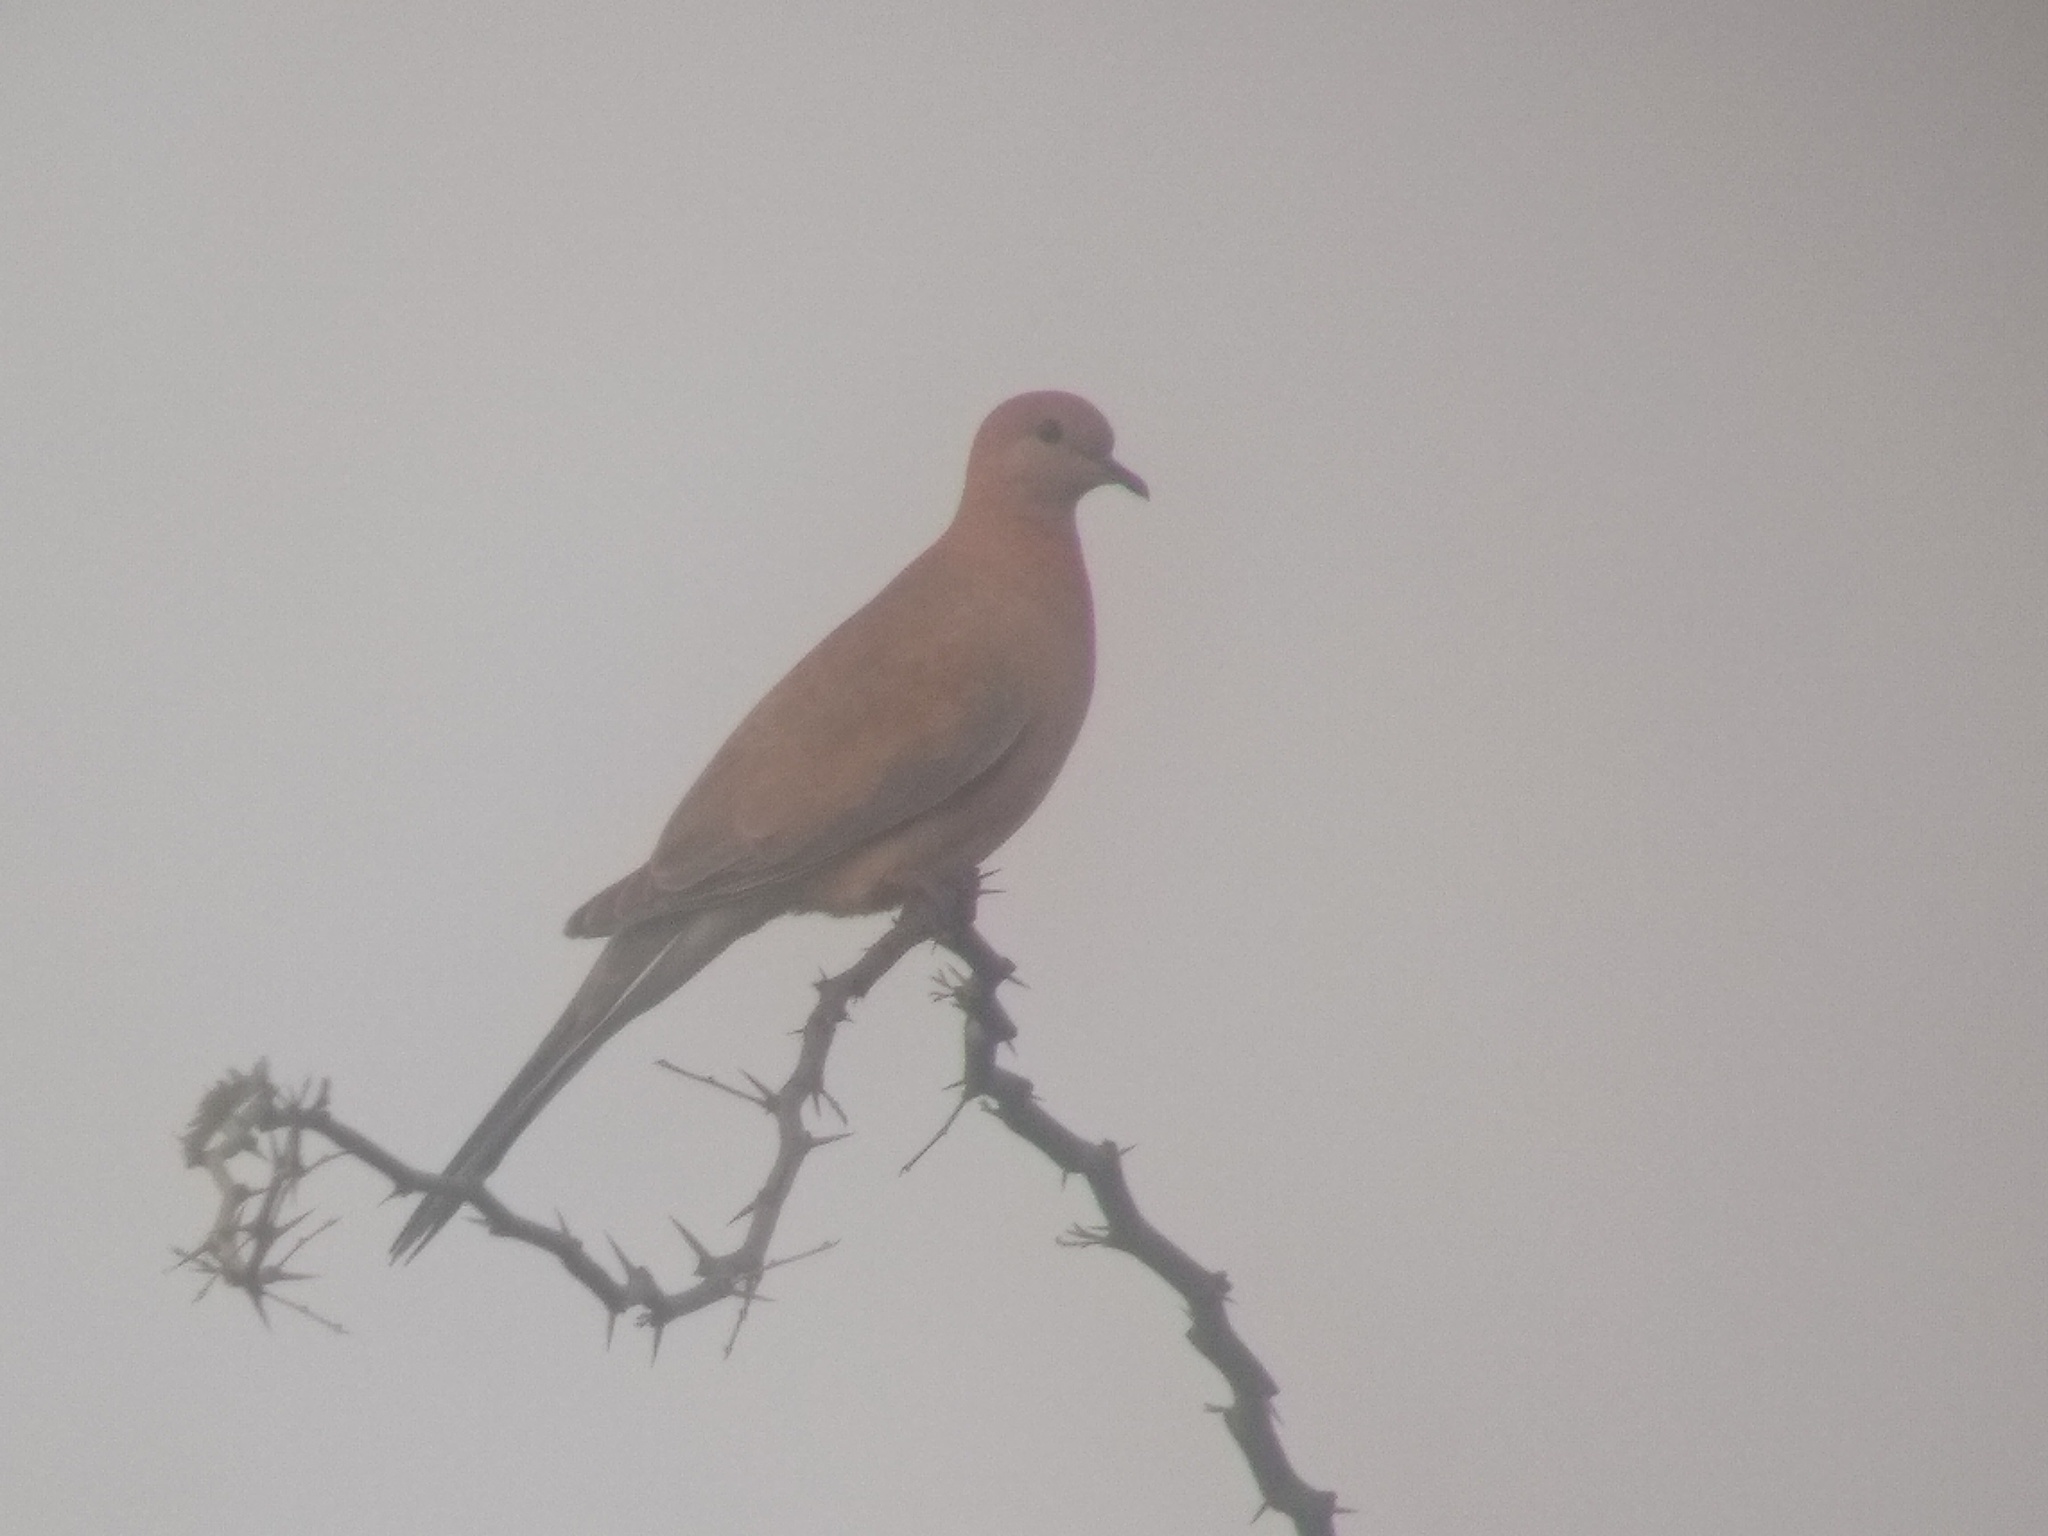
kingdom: Animalia
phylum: Chordata
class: Aves
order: Columbiformes
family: Columbidae
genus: Spilopelia
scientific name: Spilopelia senegalensis
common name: Laughing dove
